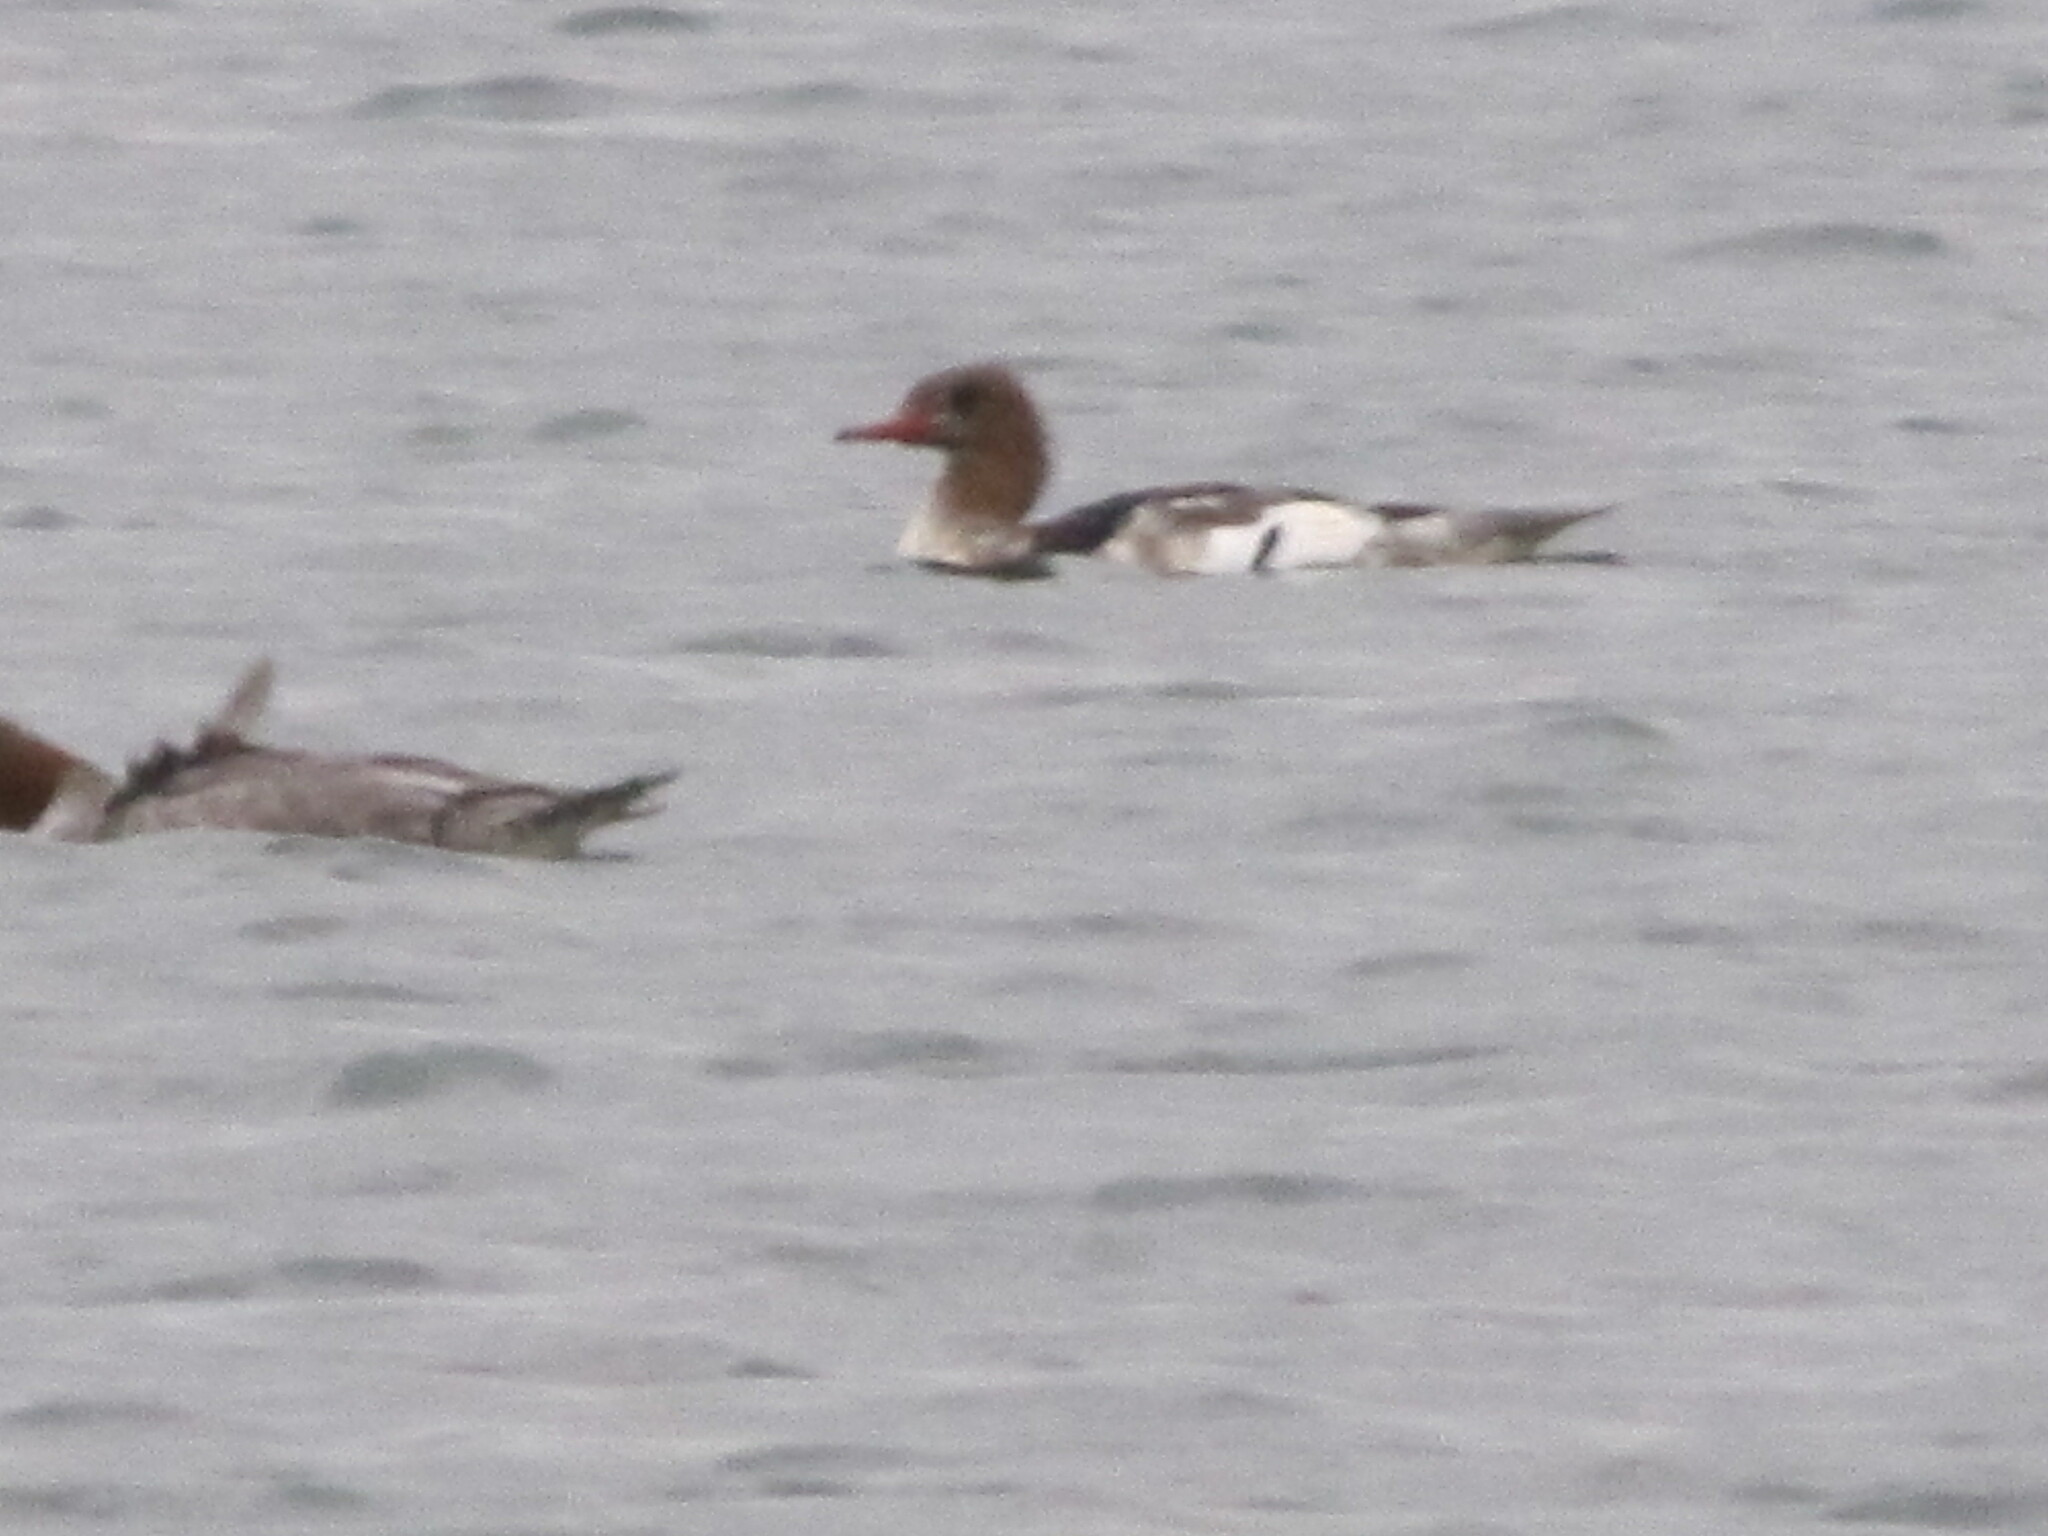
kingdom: Animalia
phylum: Chordata
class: Aves
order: Anseriformes
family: Anatidae
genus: Mergus
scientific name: Mergus merganser
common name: Common merganser
